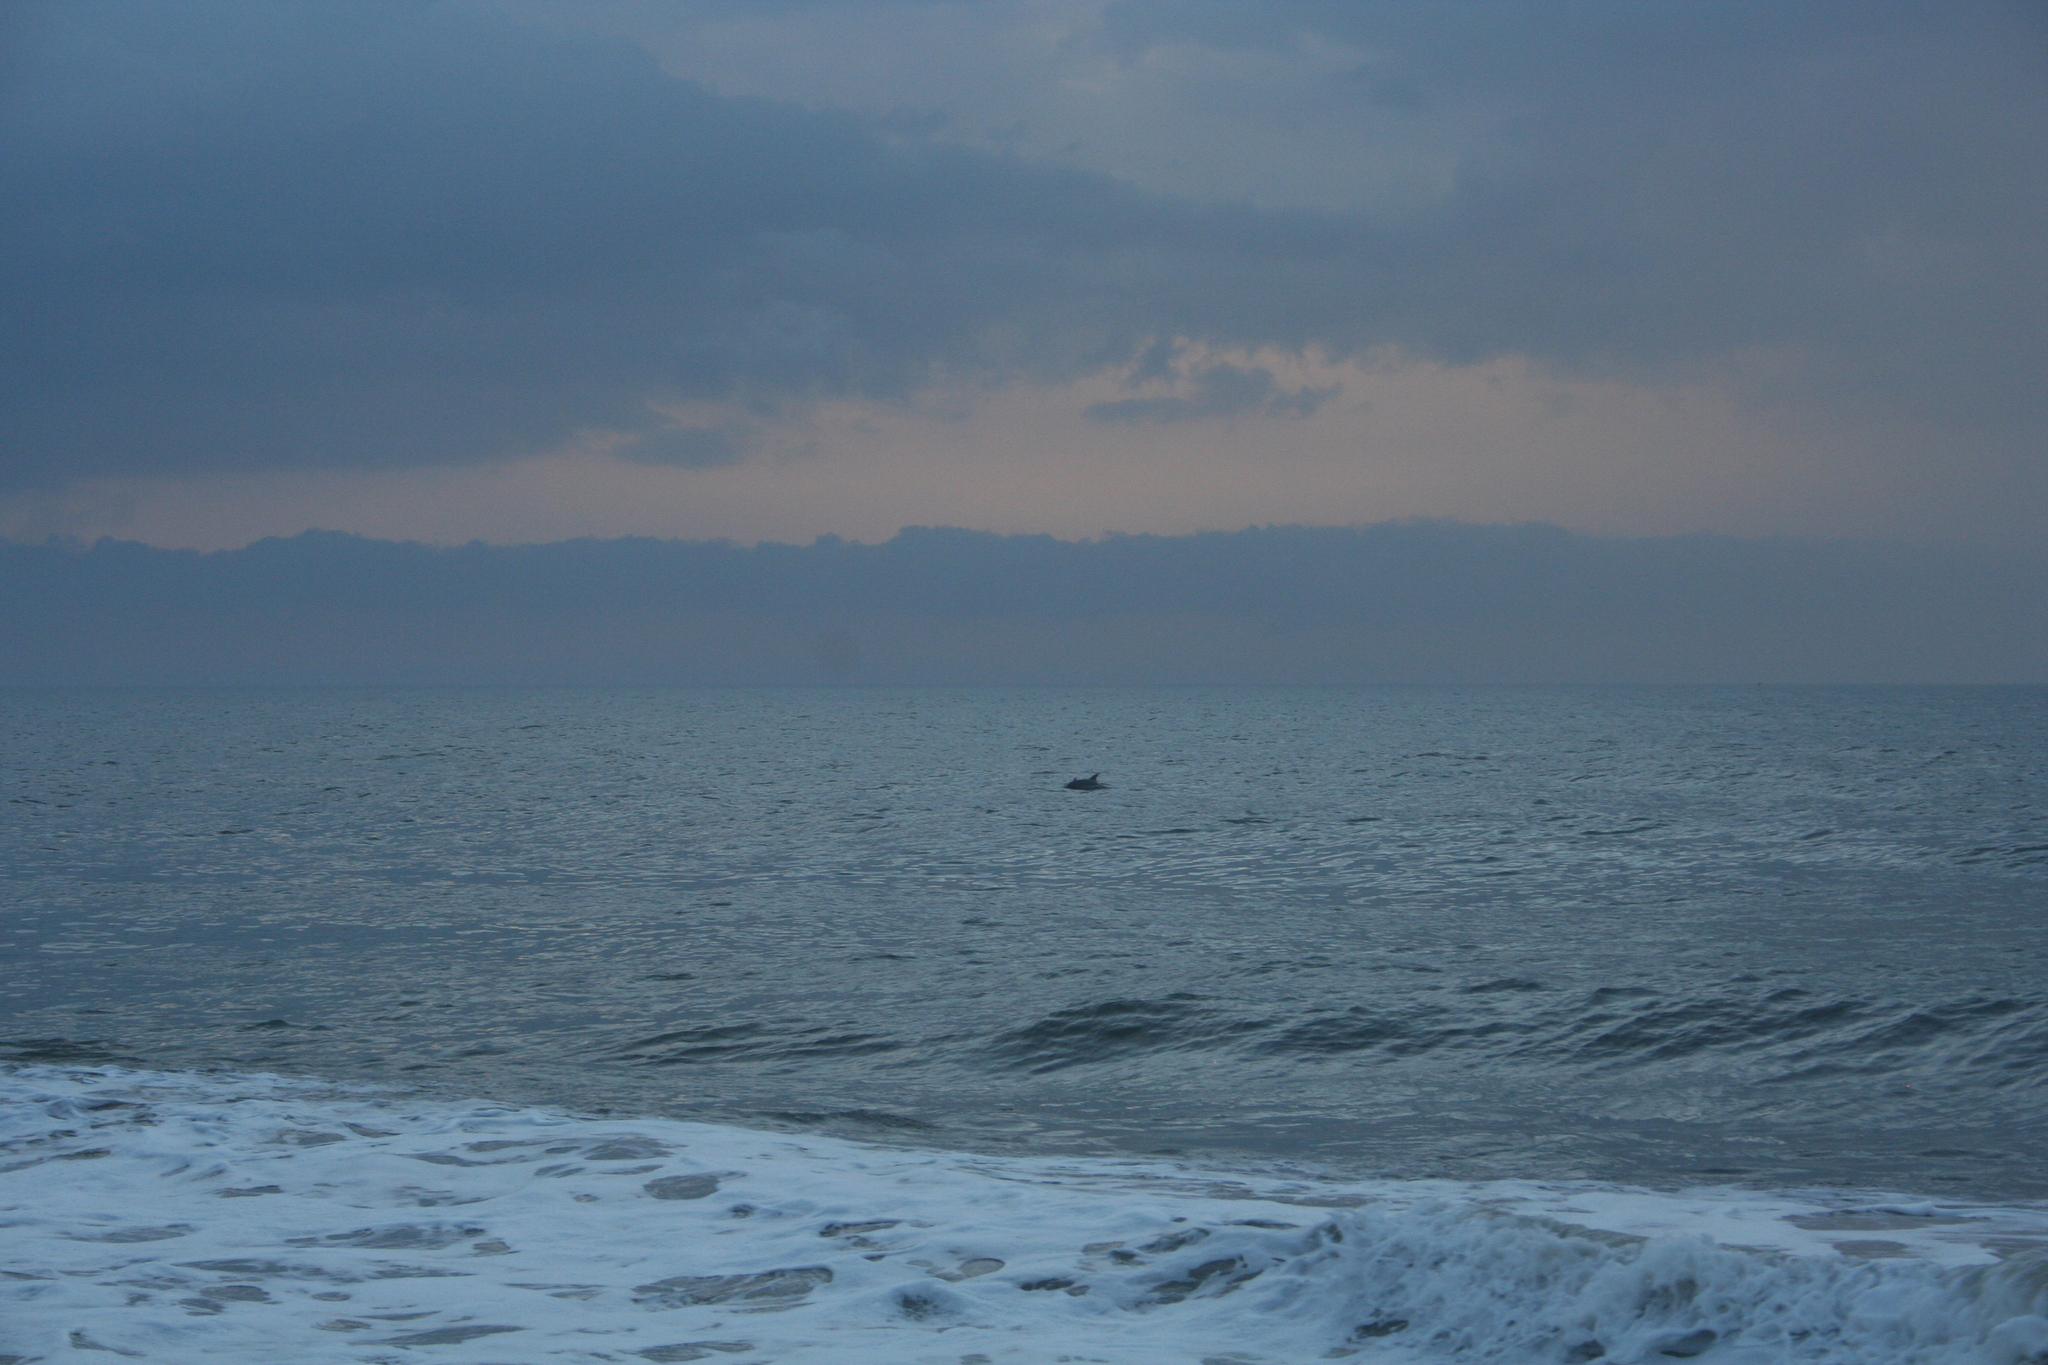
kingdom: Animalia
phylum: Chordata
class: Mammalia
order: Cetacea
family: Delphinidae
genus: Tursiops
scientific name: Tursiops truncatus
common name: Bottlenose dolphin
